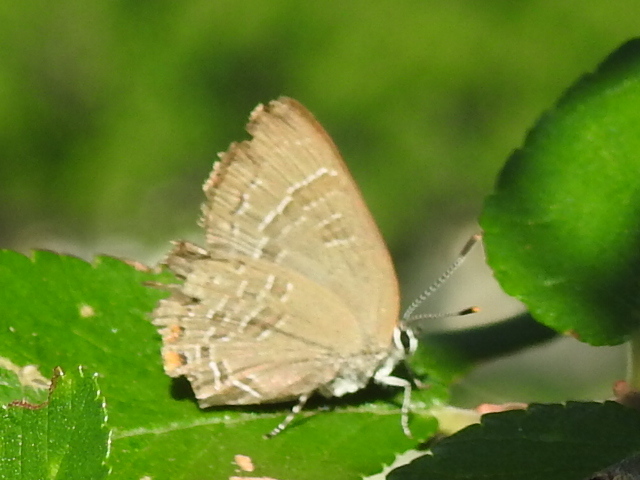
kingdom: Animalia
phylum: Arthropoda
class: Insecta
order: Lepidoptera
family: Lycaenidae
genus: Satyrium
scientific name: Satyrium calanus
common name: Banded hairstreak
